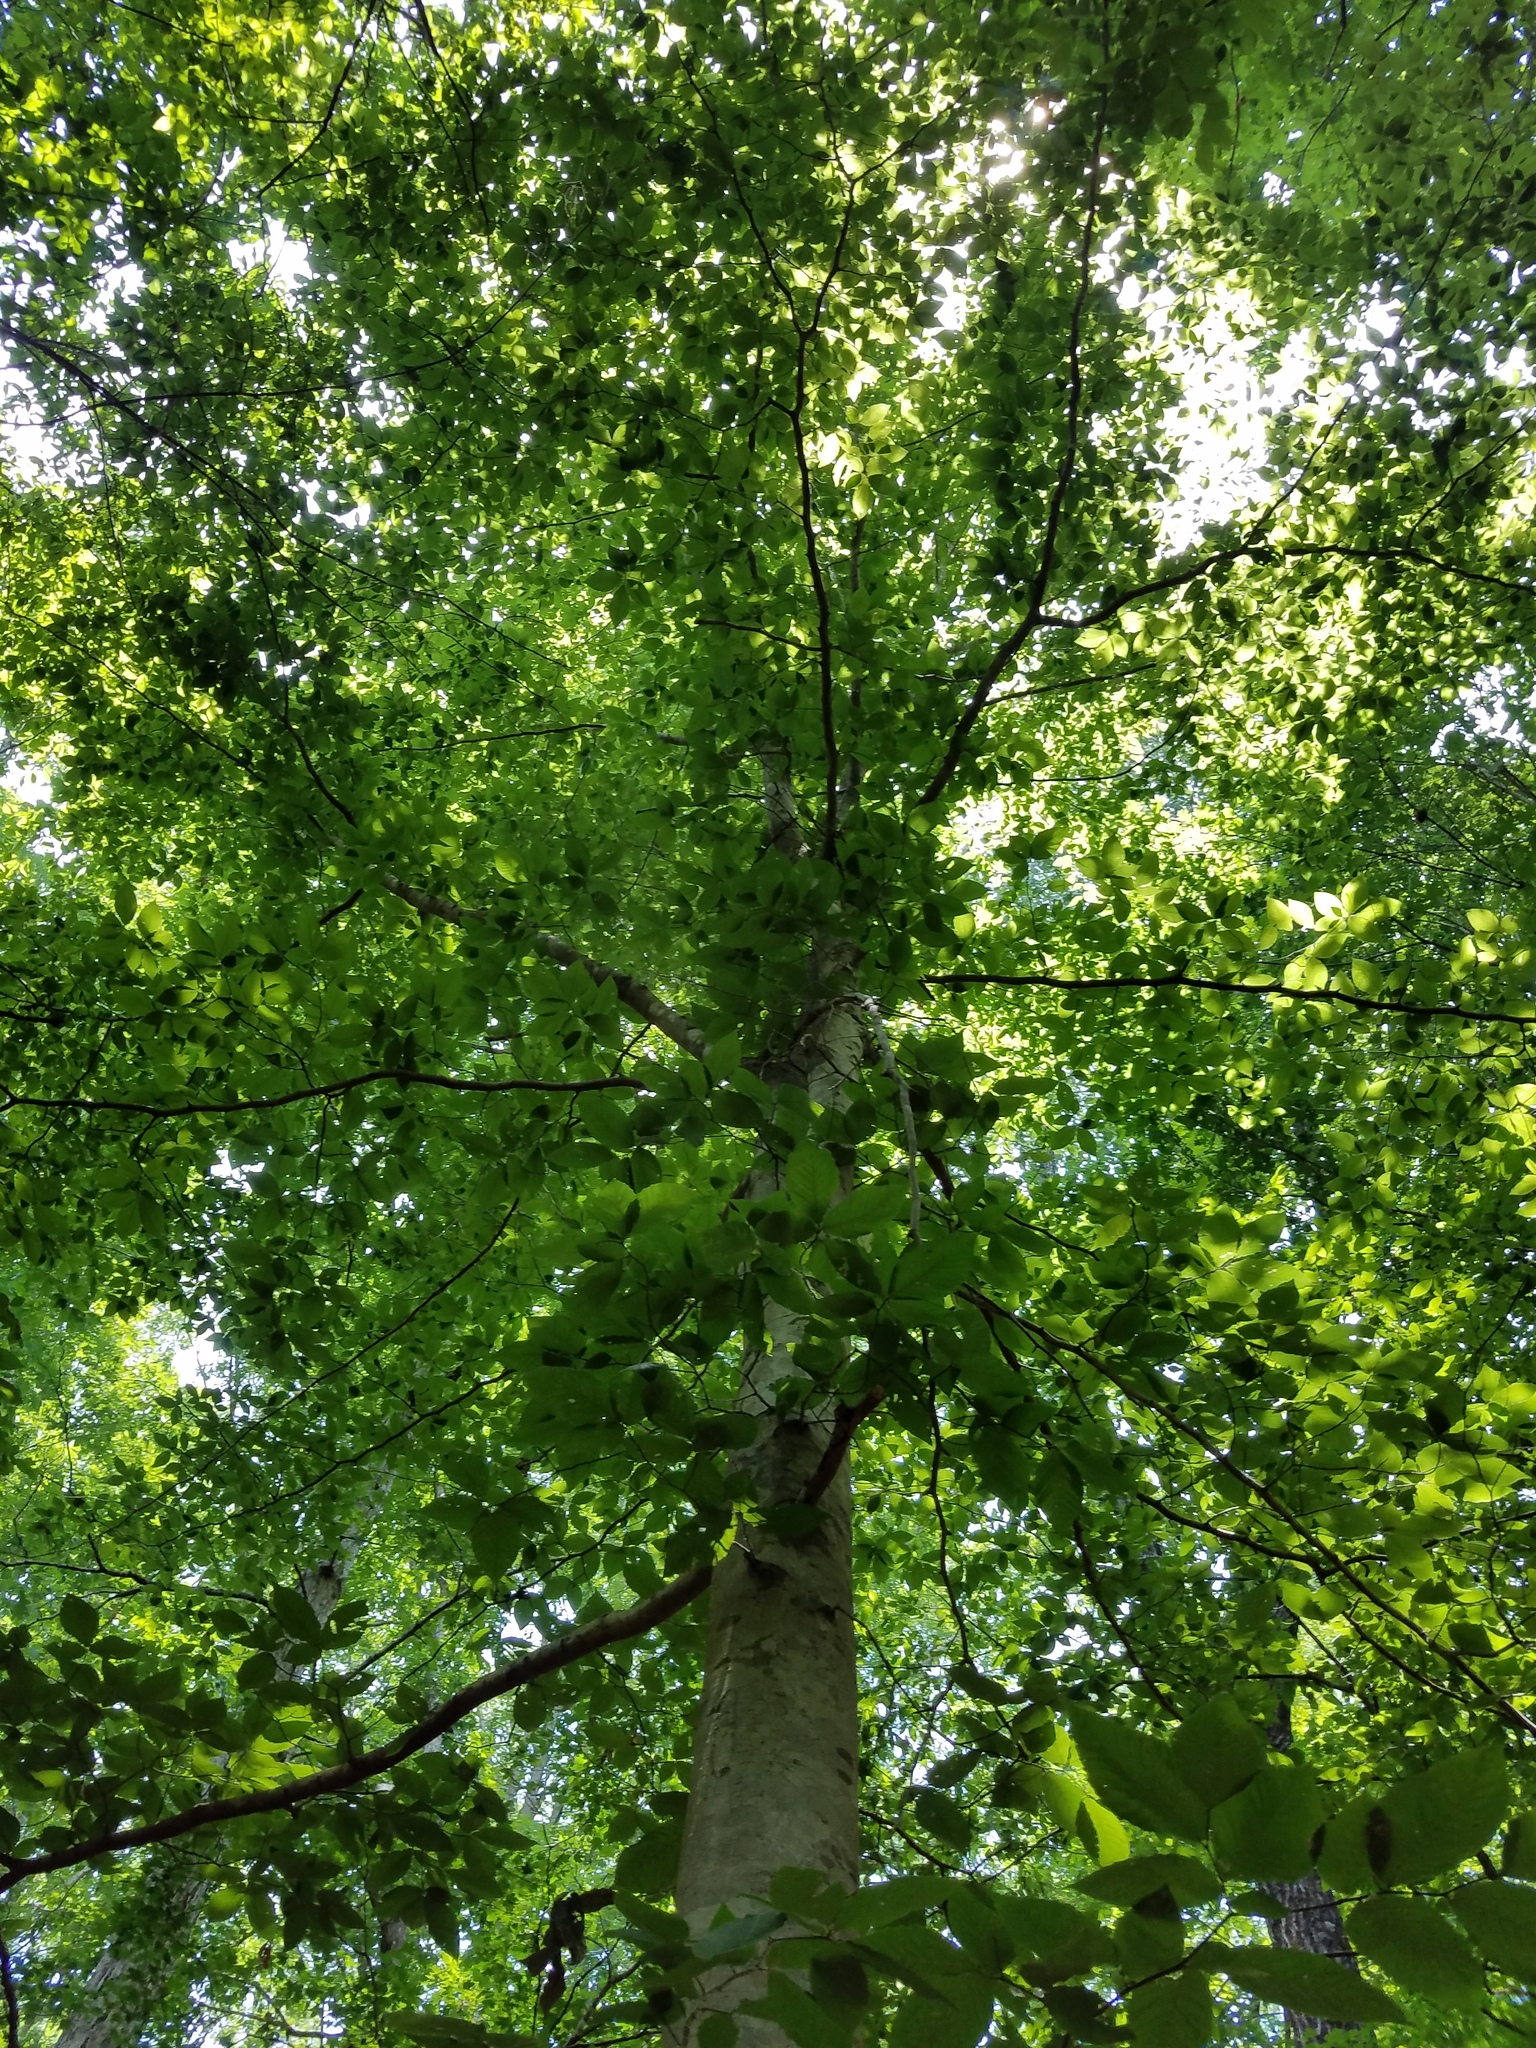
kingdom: Plantae
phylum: Tracheophyta
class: Magnoliopsida
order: Fagales
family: Fagaceae
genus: Fagus
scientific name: Fagus grandifolia
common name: American beech
